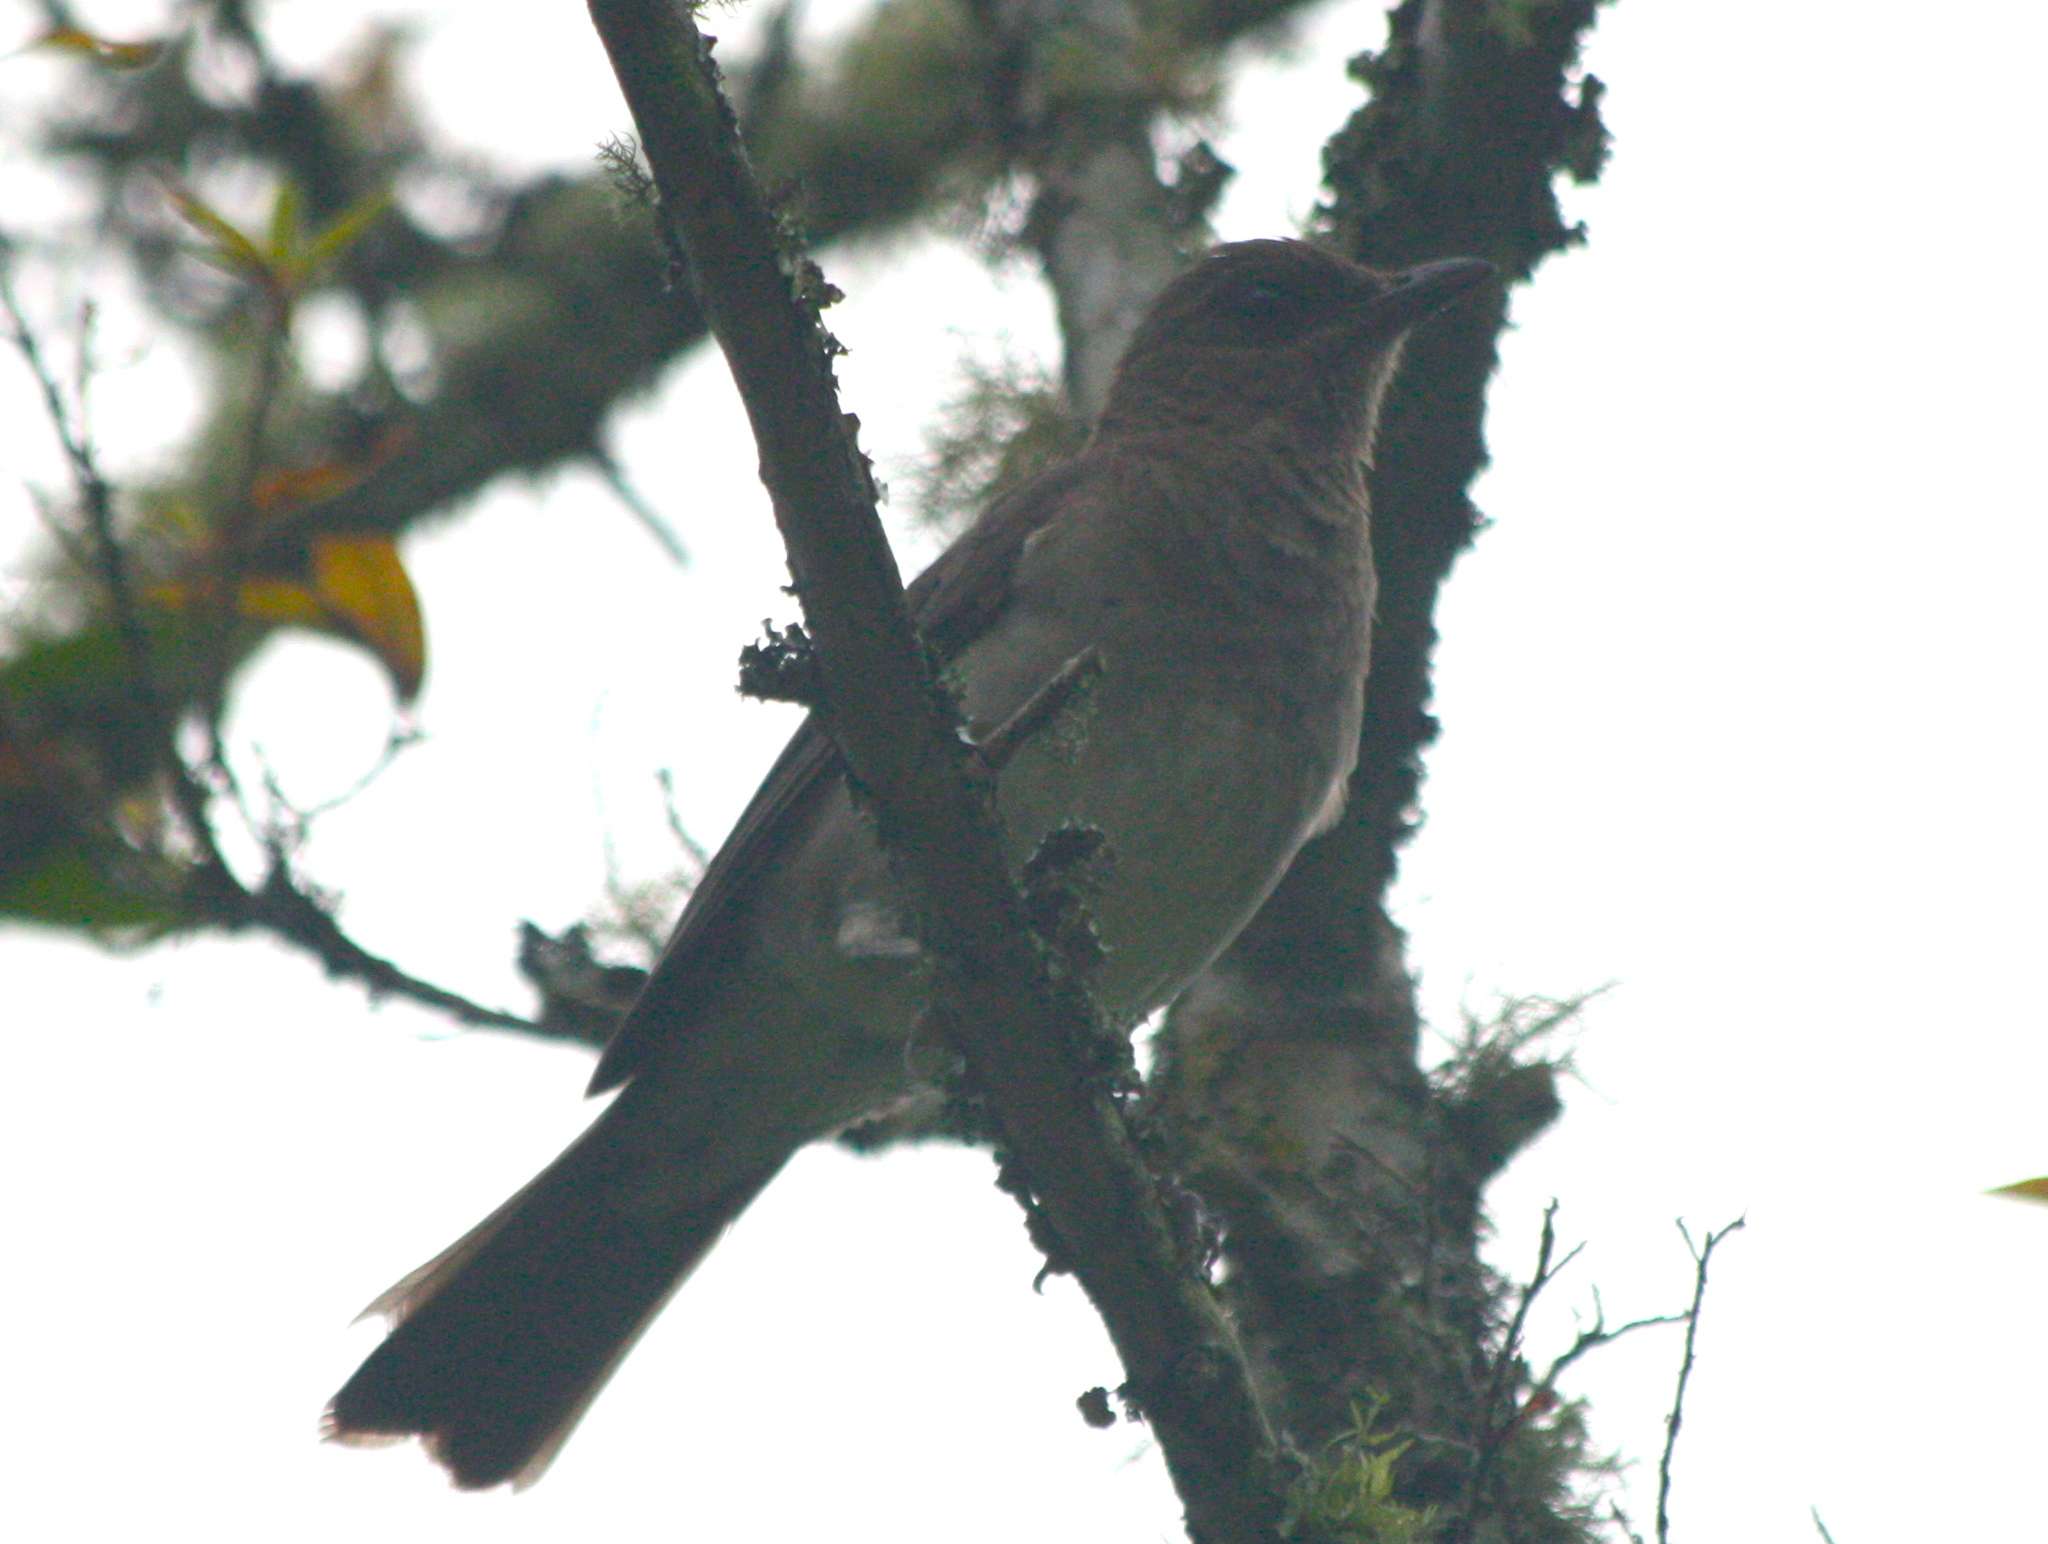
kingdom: Animalia
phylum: Chordata
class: Aves
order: Passeriformes
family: Turdidae
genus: Turdus
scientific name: Turdus ignobilis
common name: Black-billed thrush
